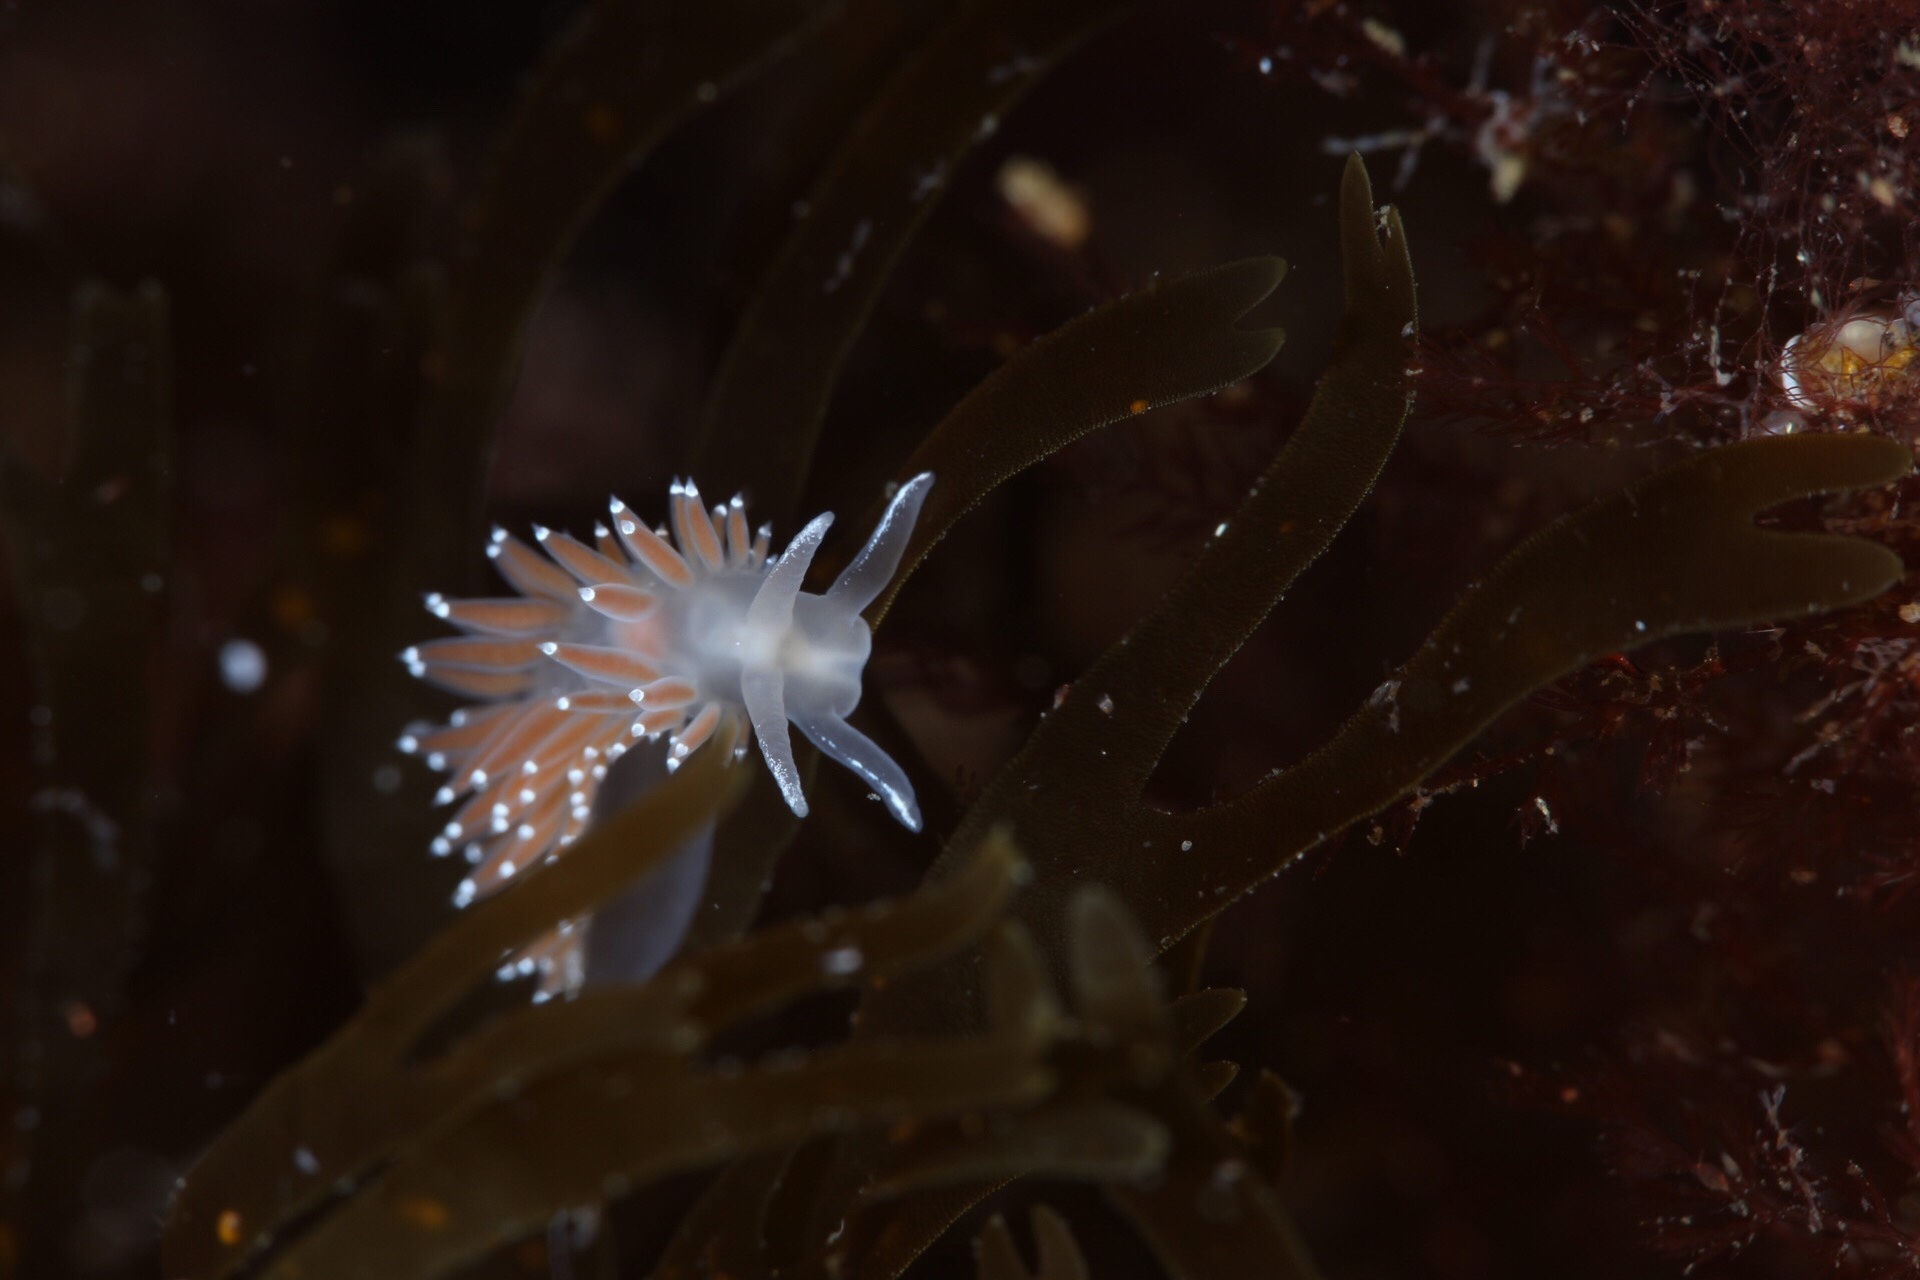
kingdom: Animalia
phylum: Mollusca
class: Gastropoda
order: Nudibranchia
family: Coryphellidae
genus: Coryphella
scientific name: Coryphella verrucosa
